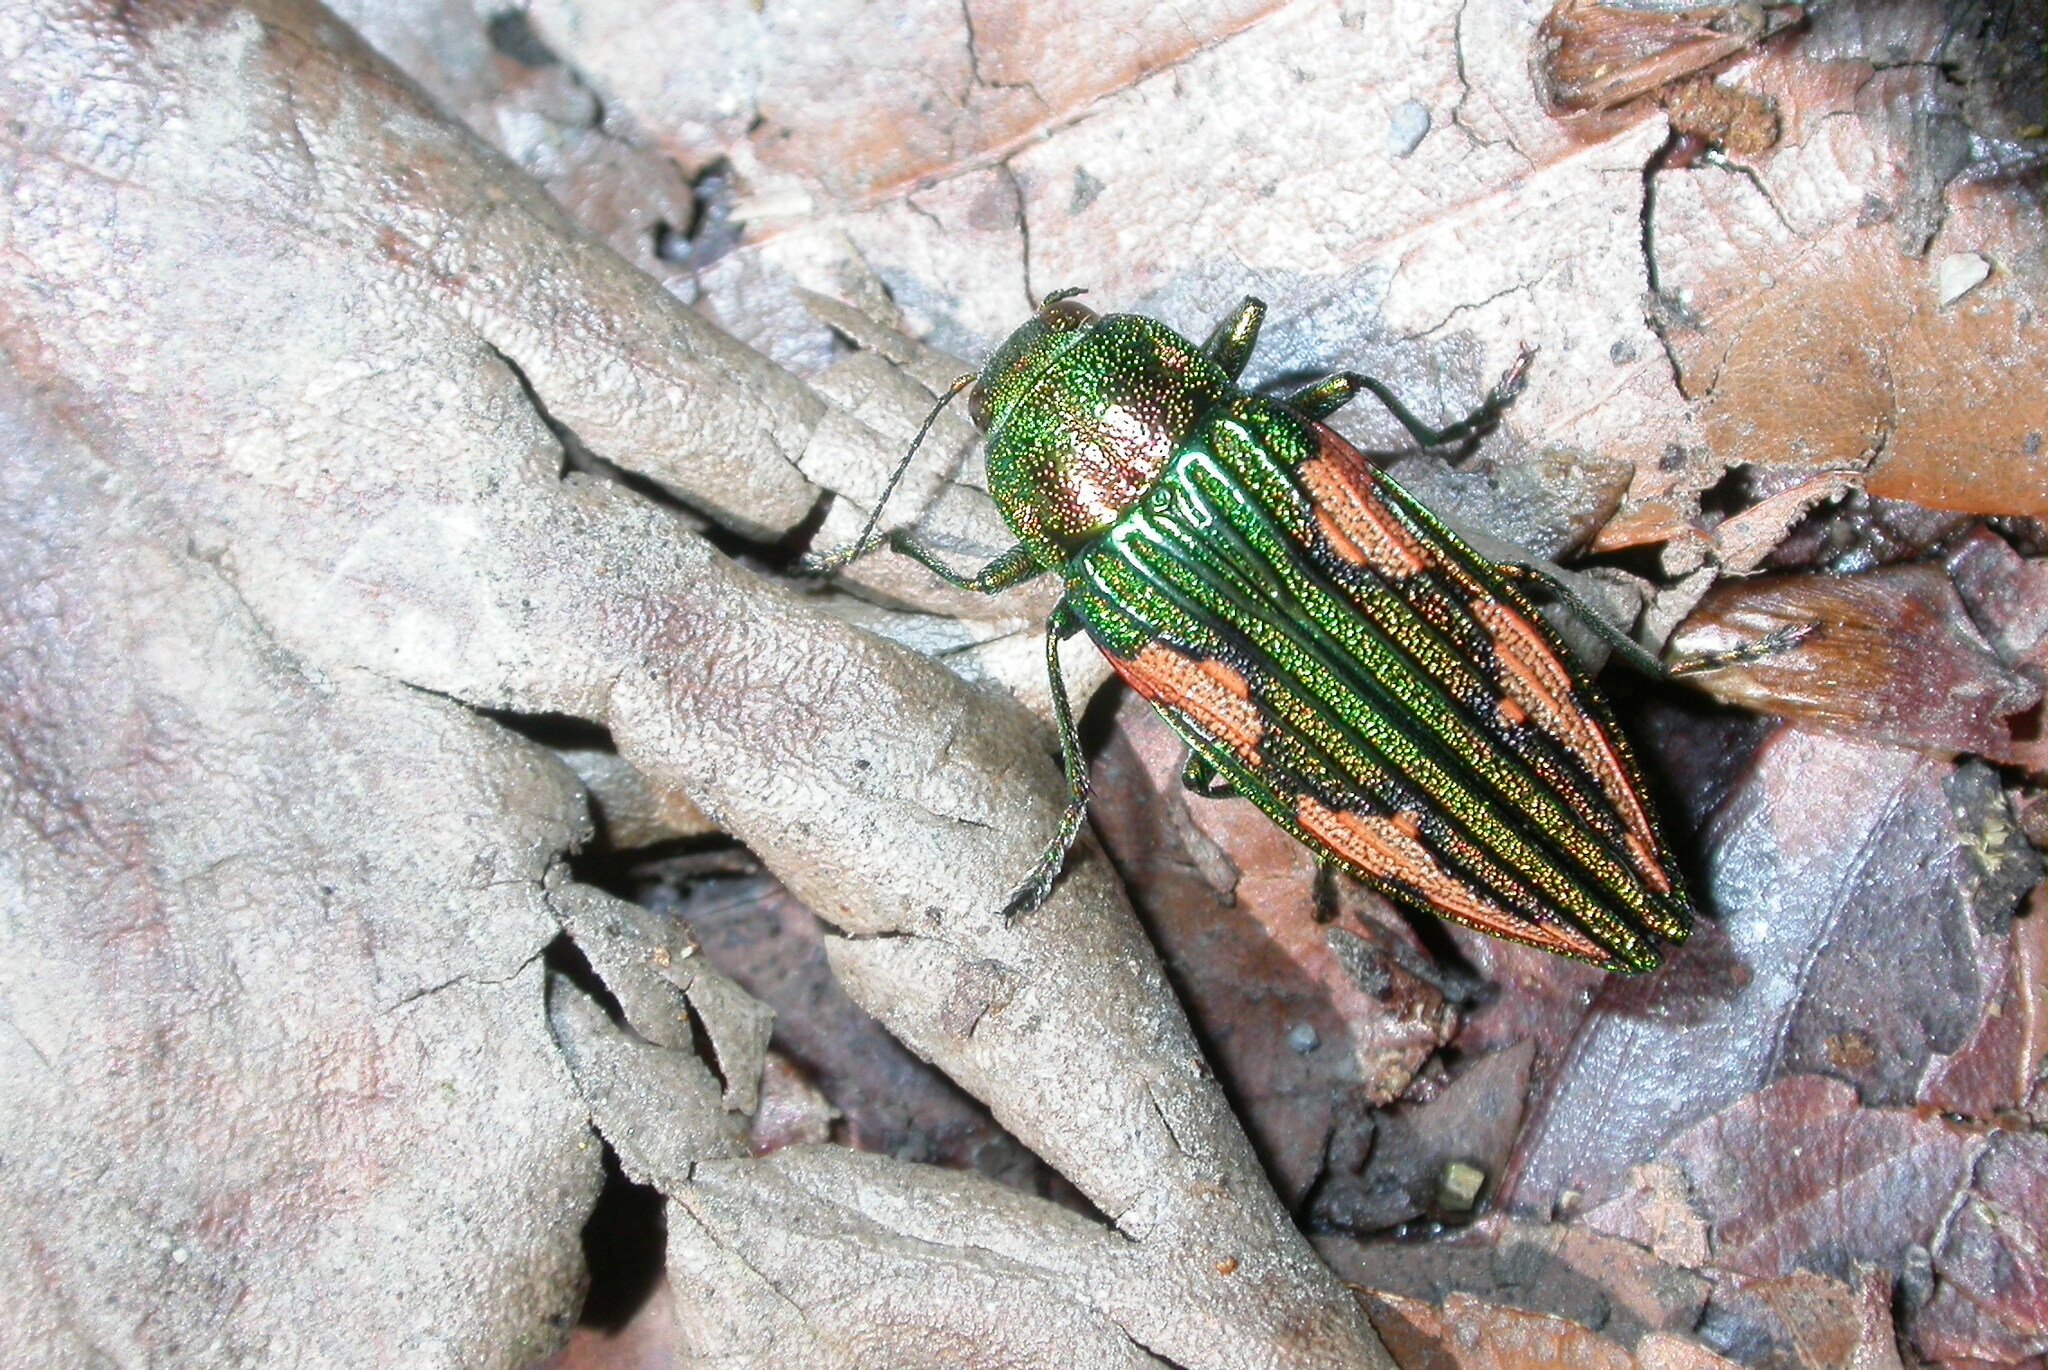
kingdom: Animalia
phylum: Arthropoda
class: Insecta
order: Coleoptera
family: Buprestidae
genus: Buprestis
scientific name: Buprestis mirabilis
